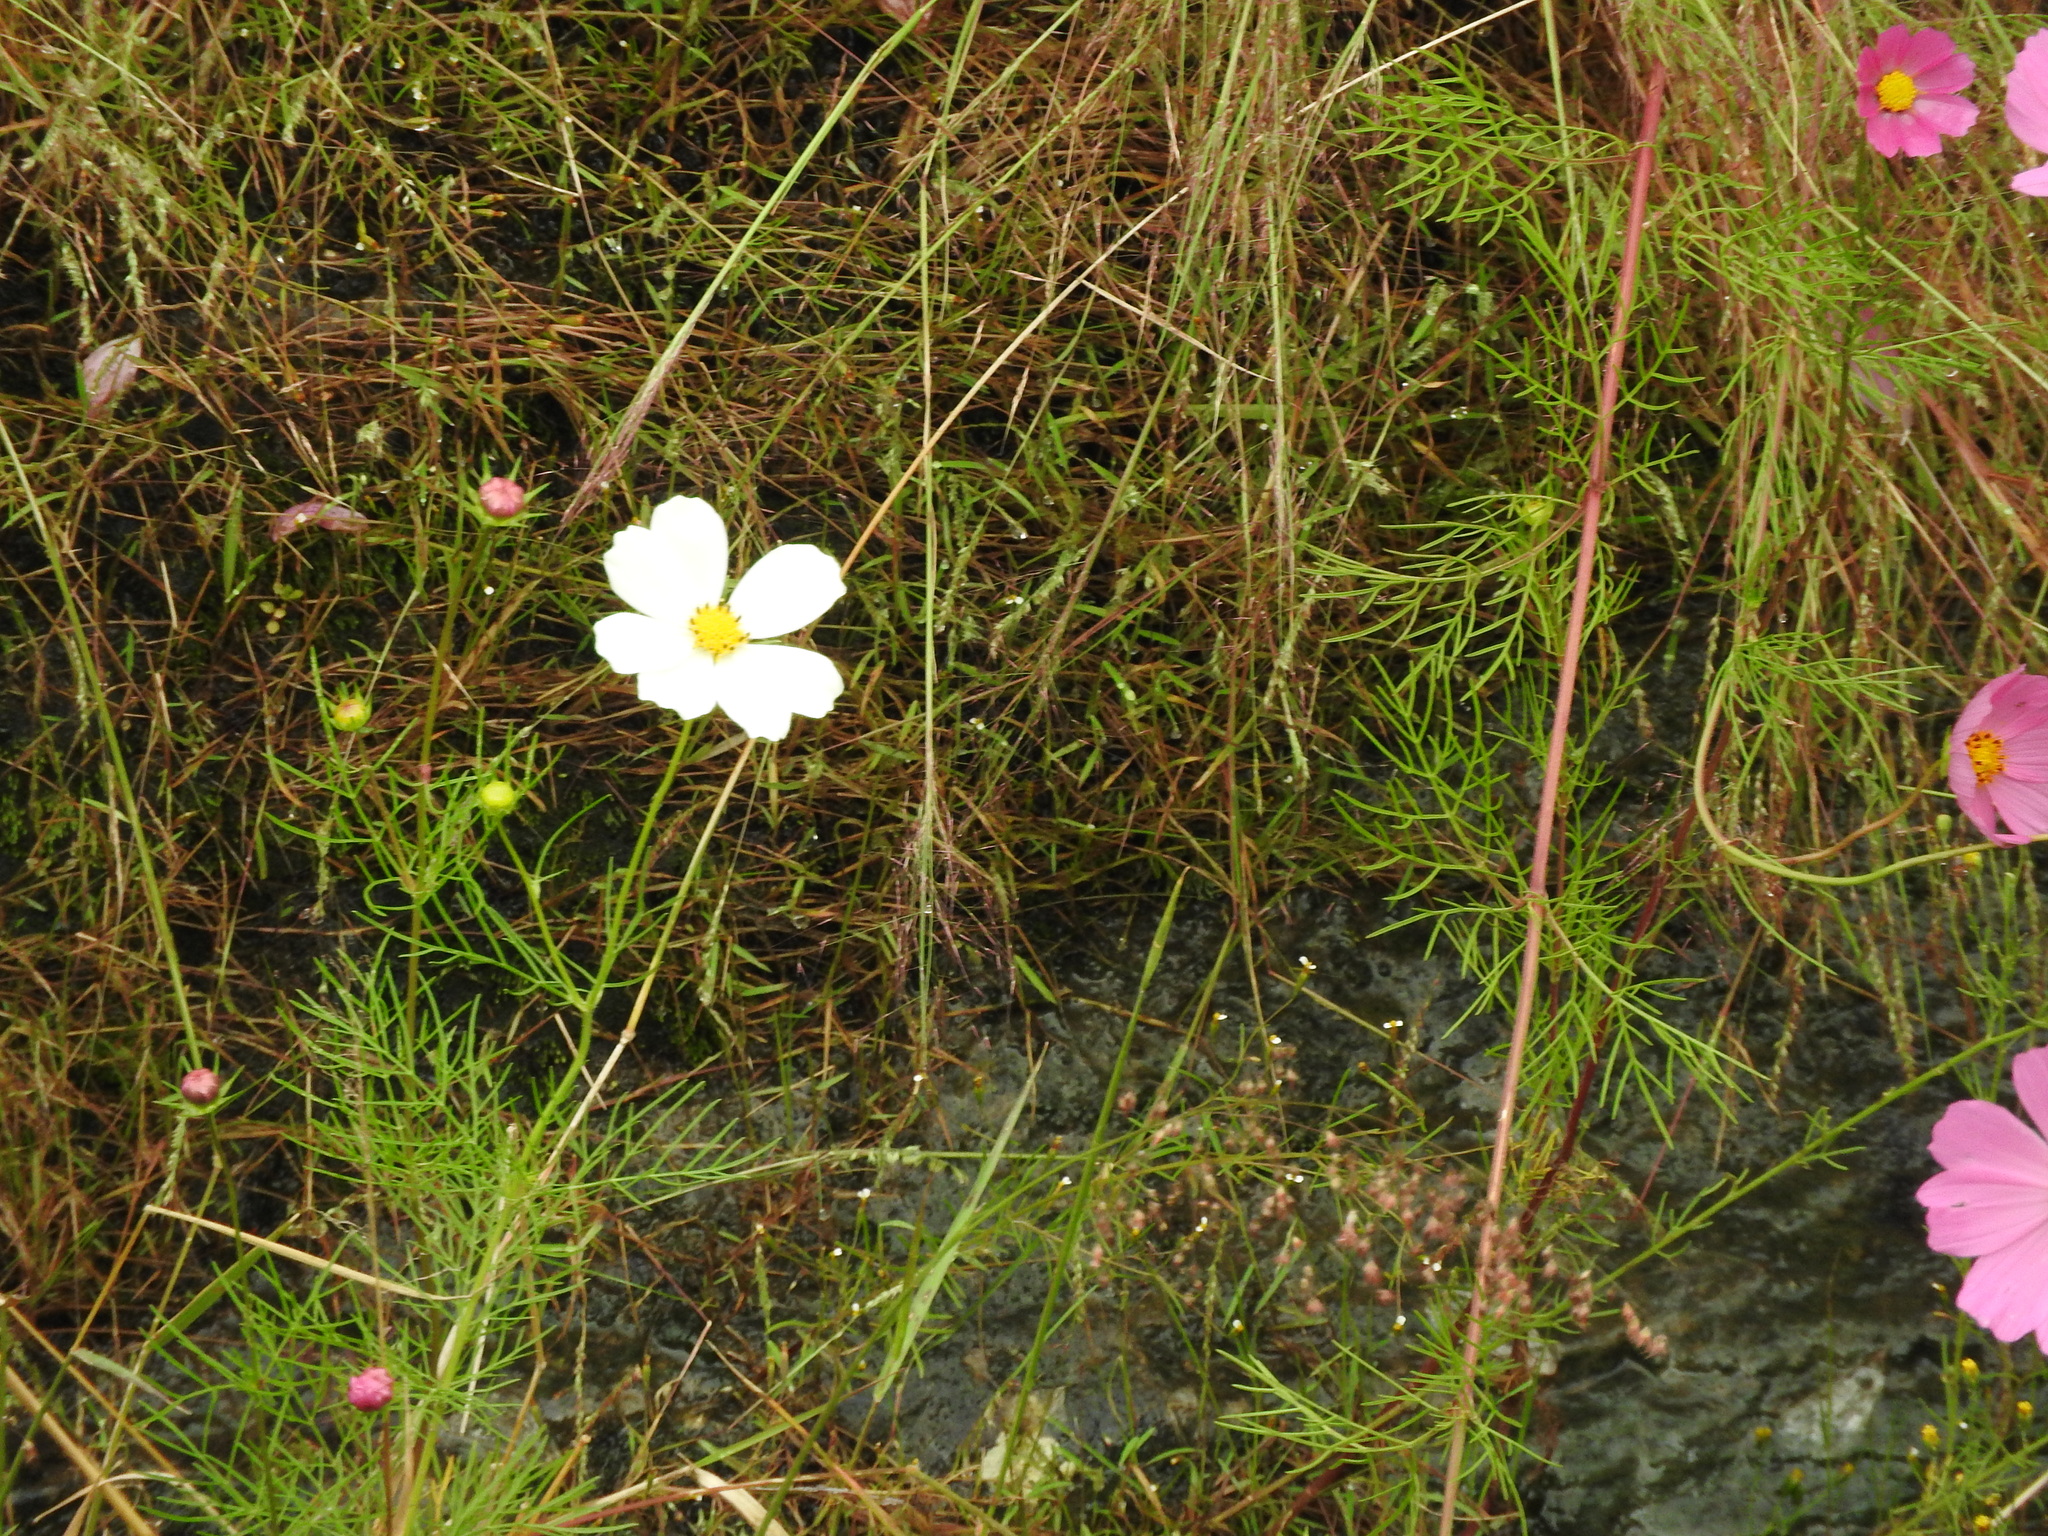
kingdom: Plantae
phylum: Tracheophyta
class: Magnoliopsida
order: Asterales
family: Asteraceae
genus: Cosmos
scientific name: Cosmos bipinnatus
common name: Garden cosmos
